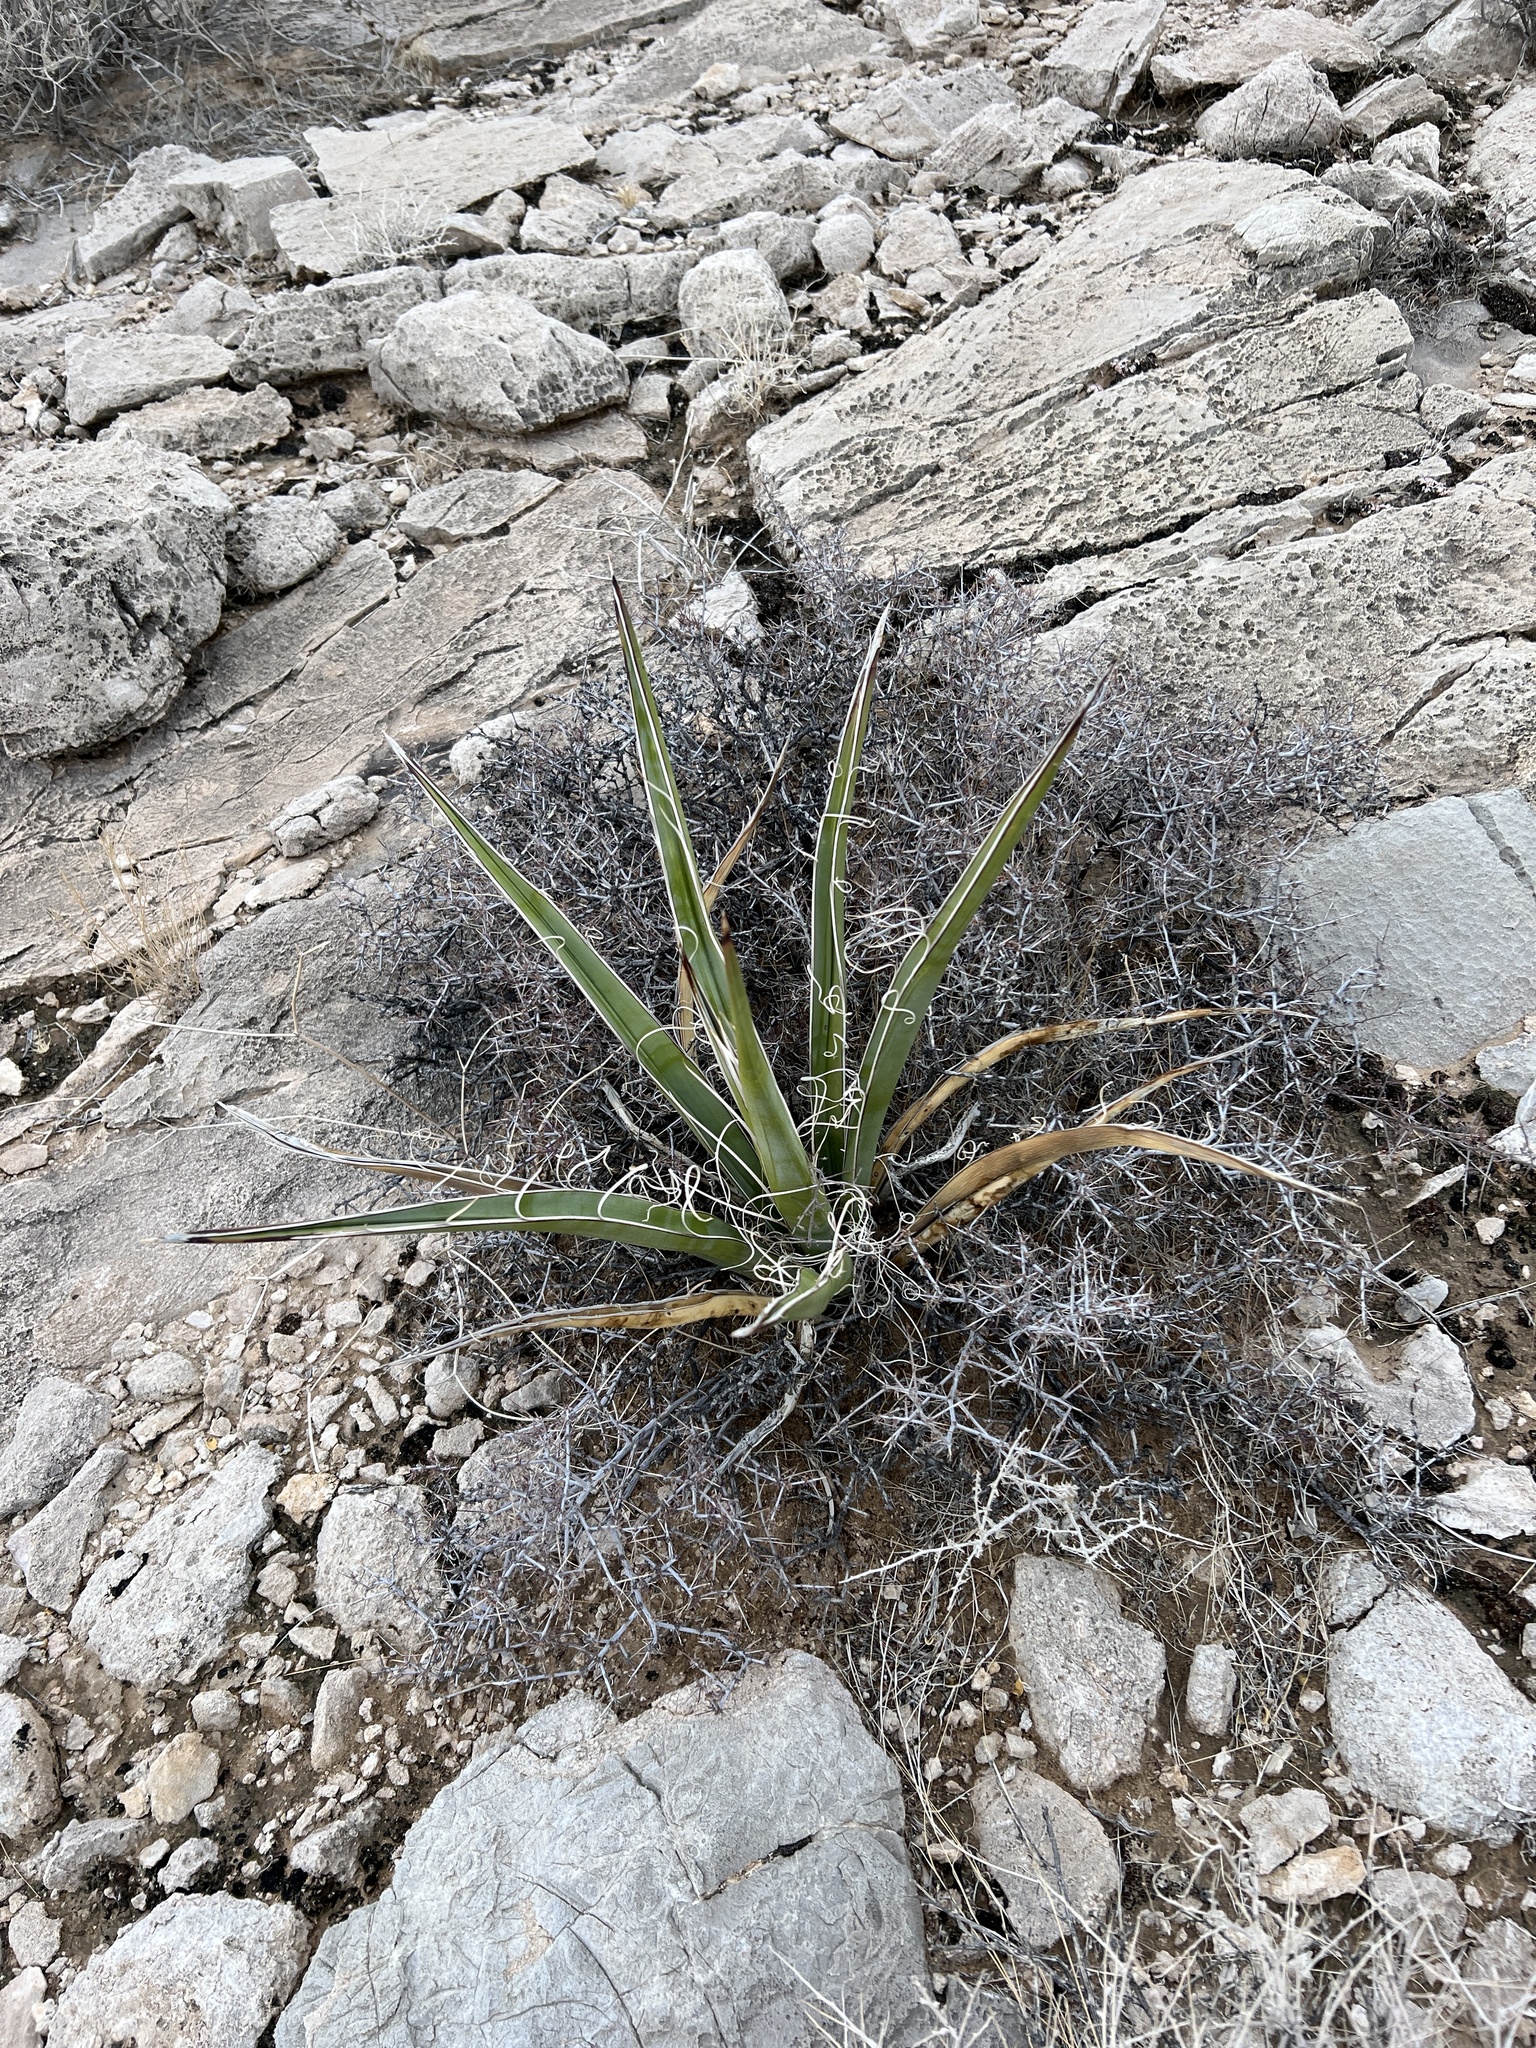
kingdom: Plantae
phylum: Tracheophyta
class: Liliopsida
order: Asparagales
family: Asparagaceae
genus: Yucca
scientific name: Yucca baccata
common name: Banana yucca
